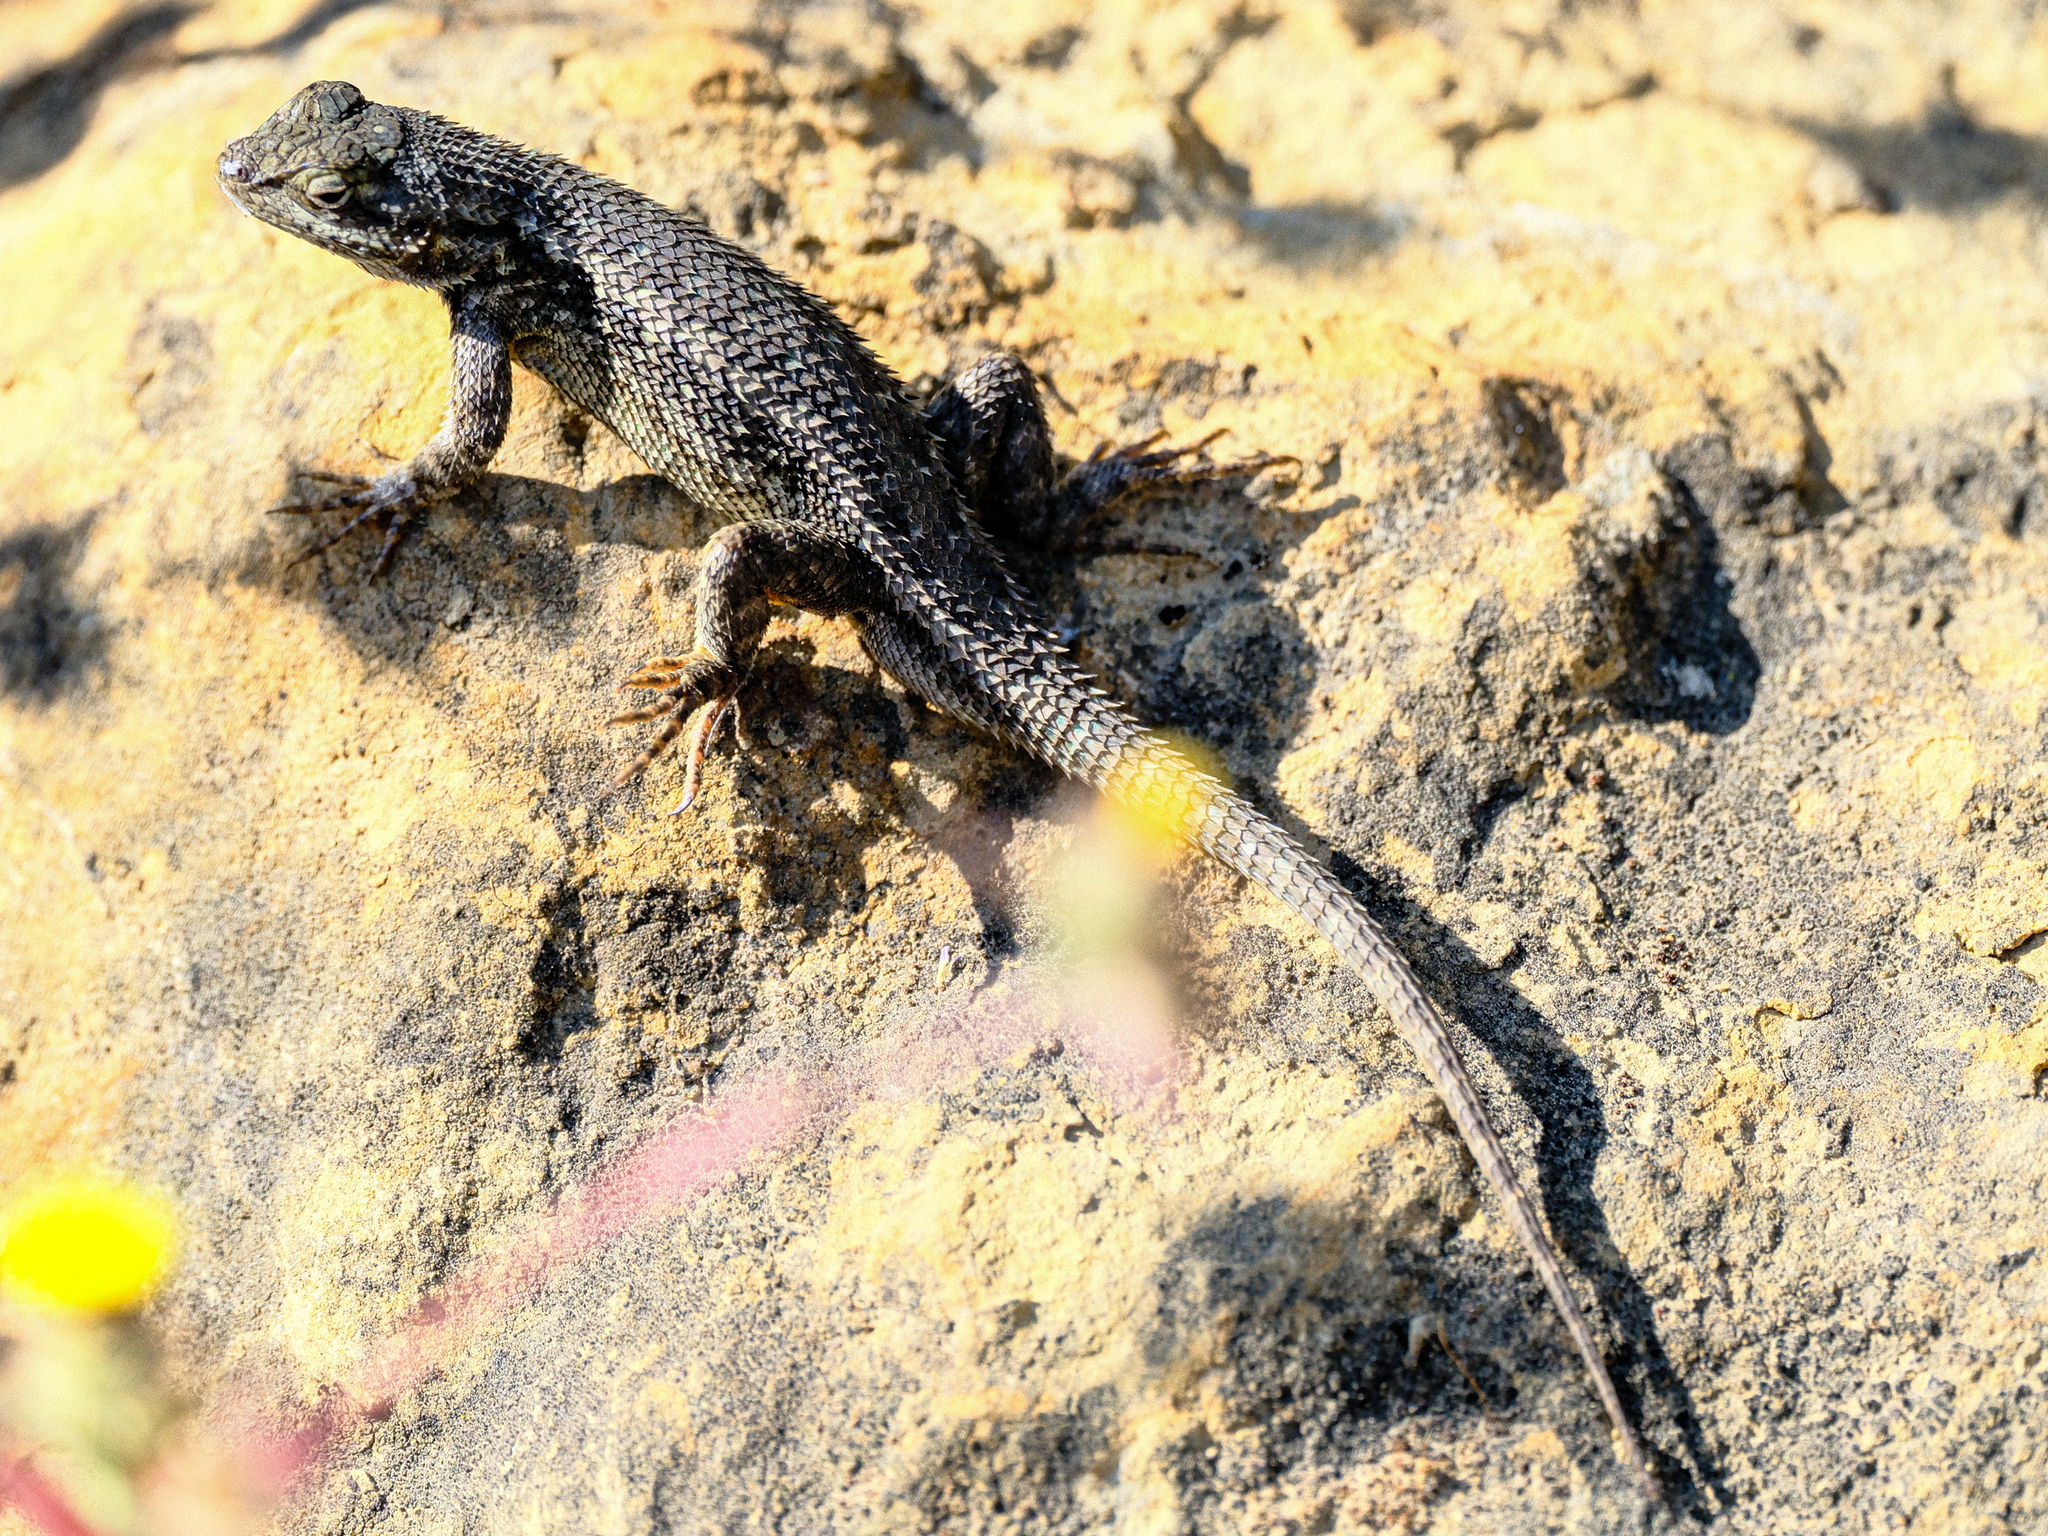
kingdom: Animalia
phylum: Chordata
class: Squamata
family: Phrynosomatidae
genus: Sceloporus
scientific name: Sceloporus occidentalis
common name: Western fence lizard
